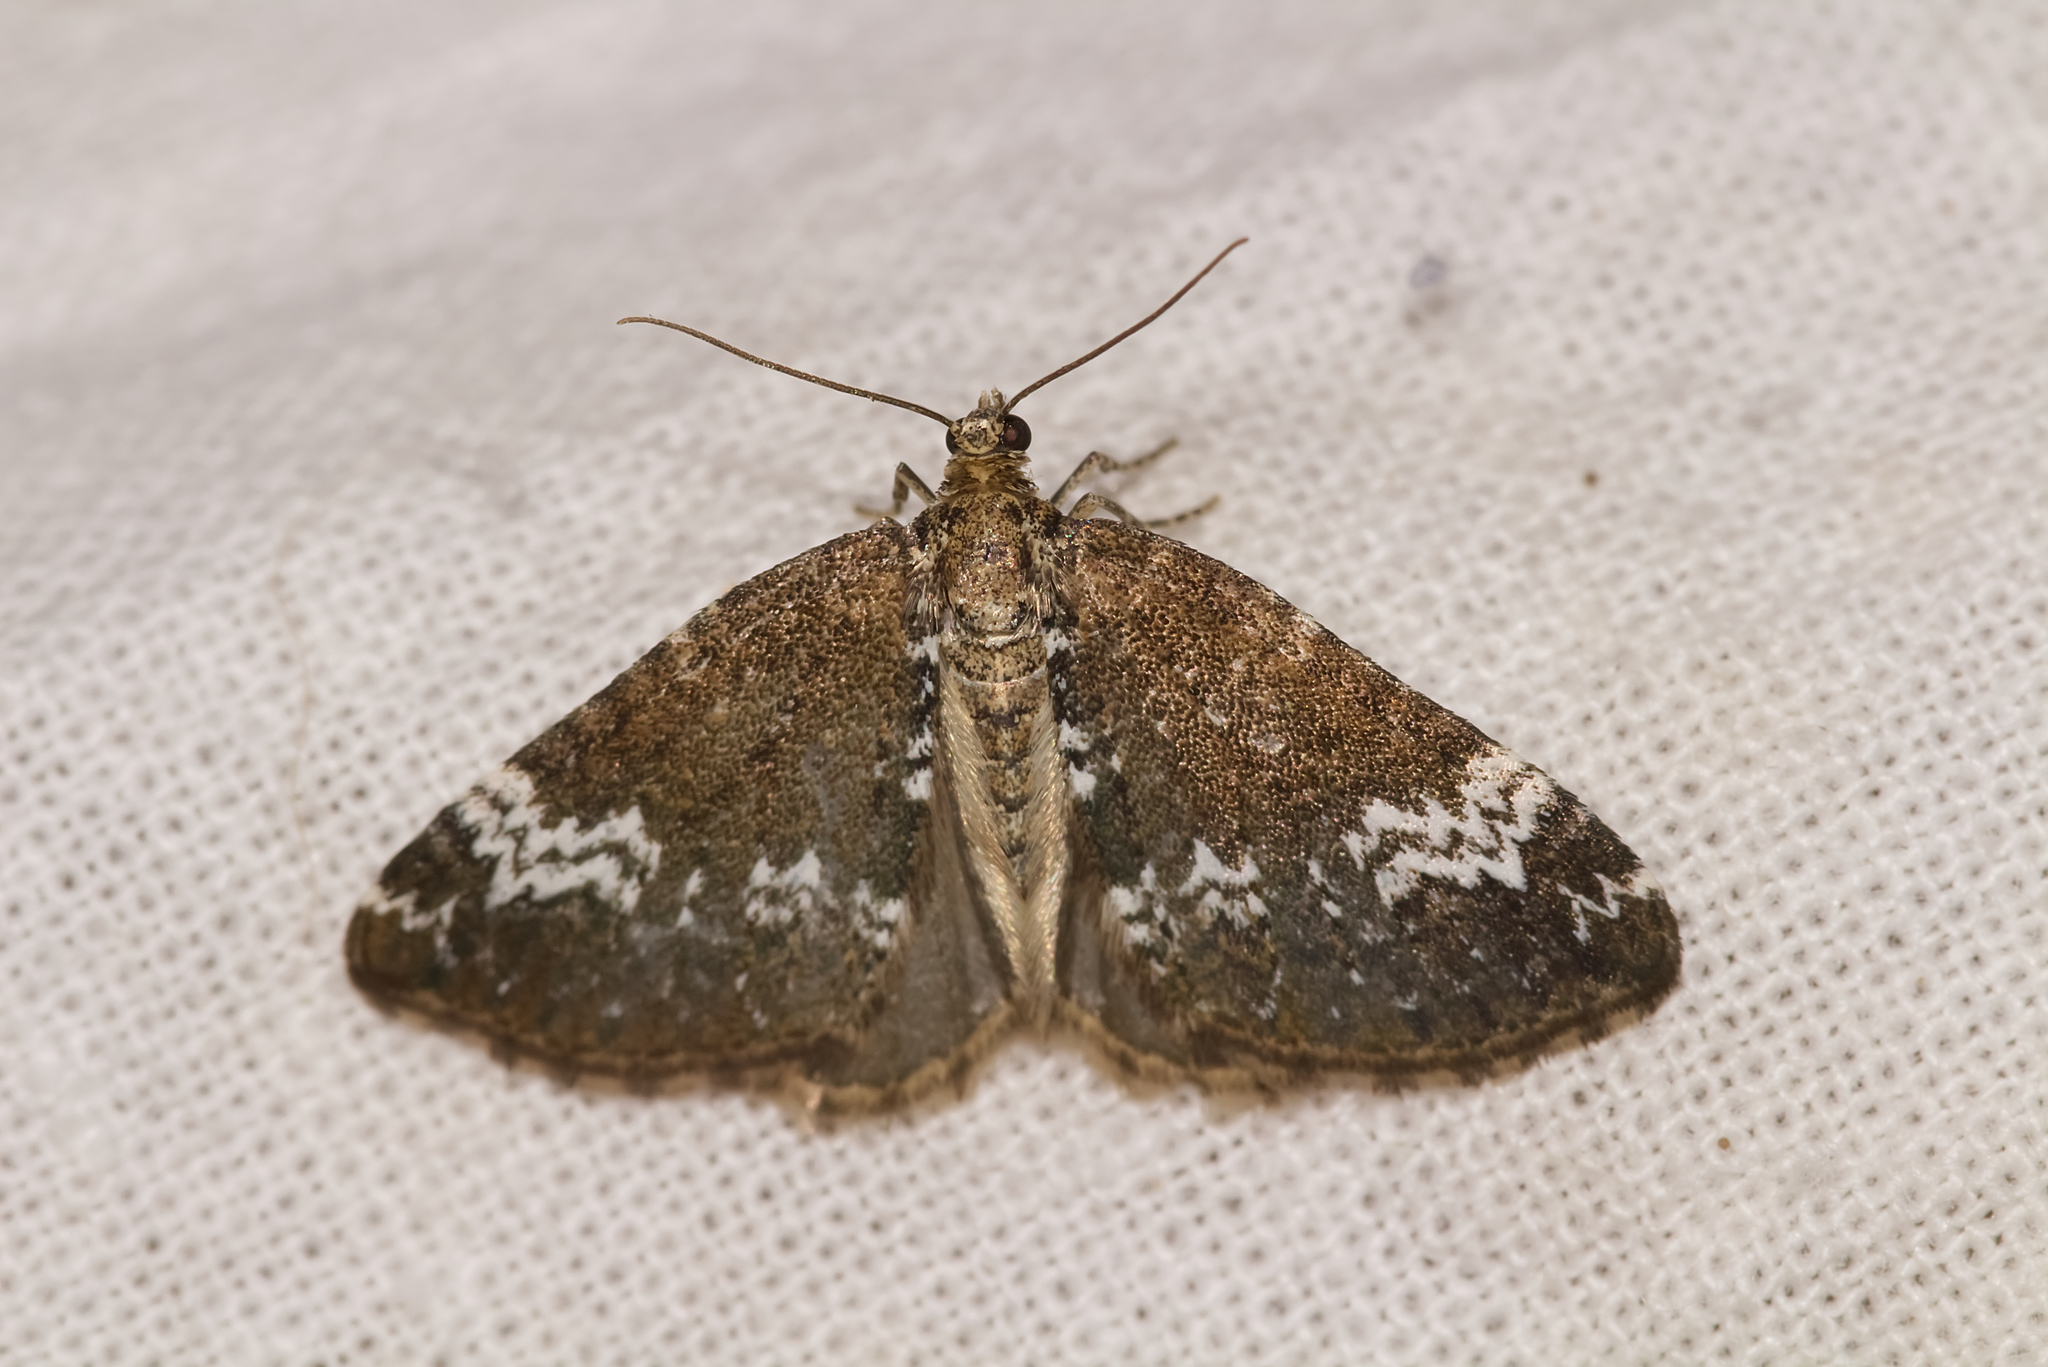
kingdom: Animalia
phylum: Arthropoda
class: Insecta
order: Lepidoptera
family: Geometridae
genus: Perizoma
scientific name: Perizoma alchemillata
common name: Small rivulet
